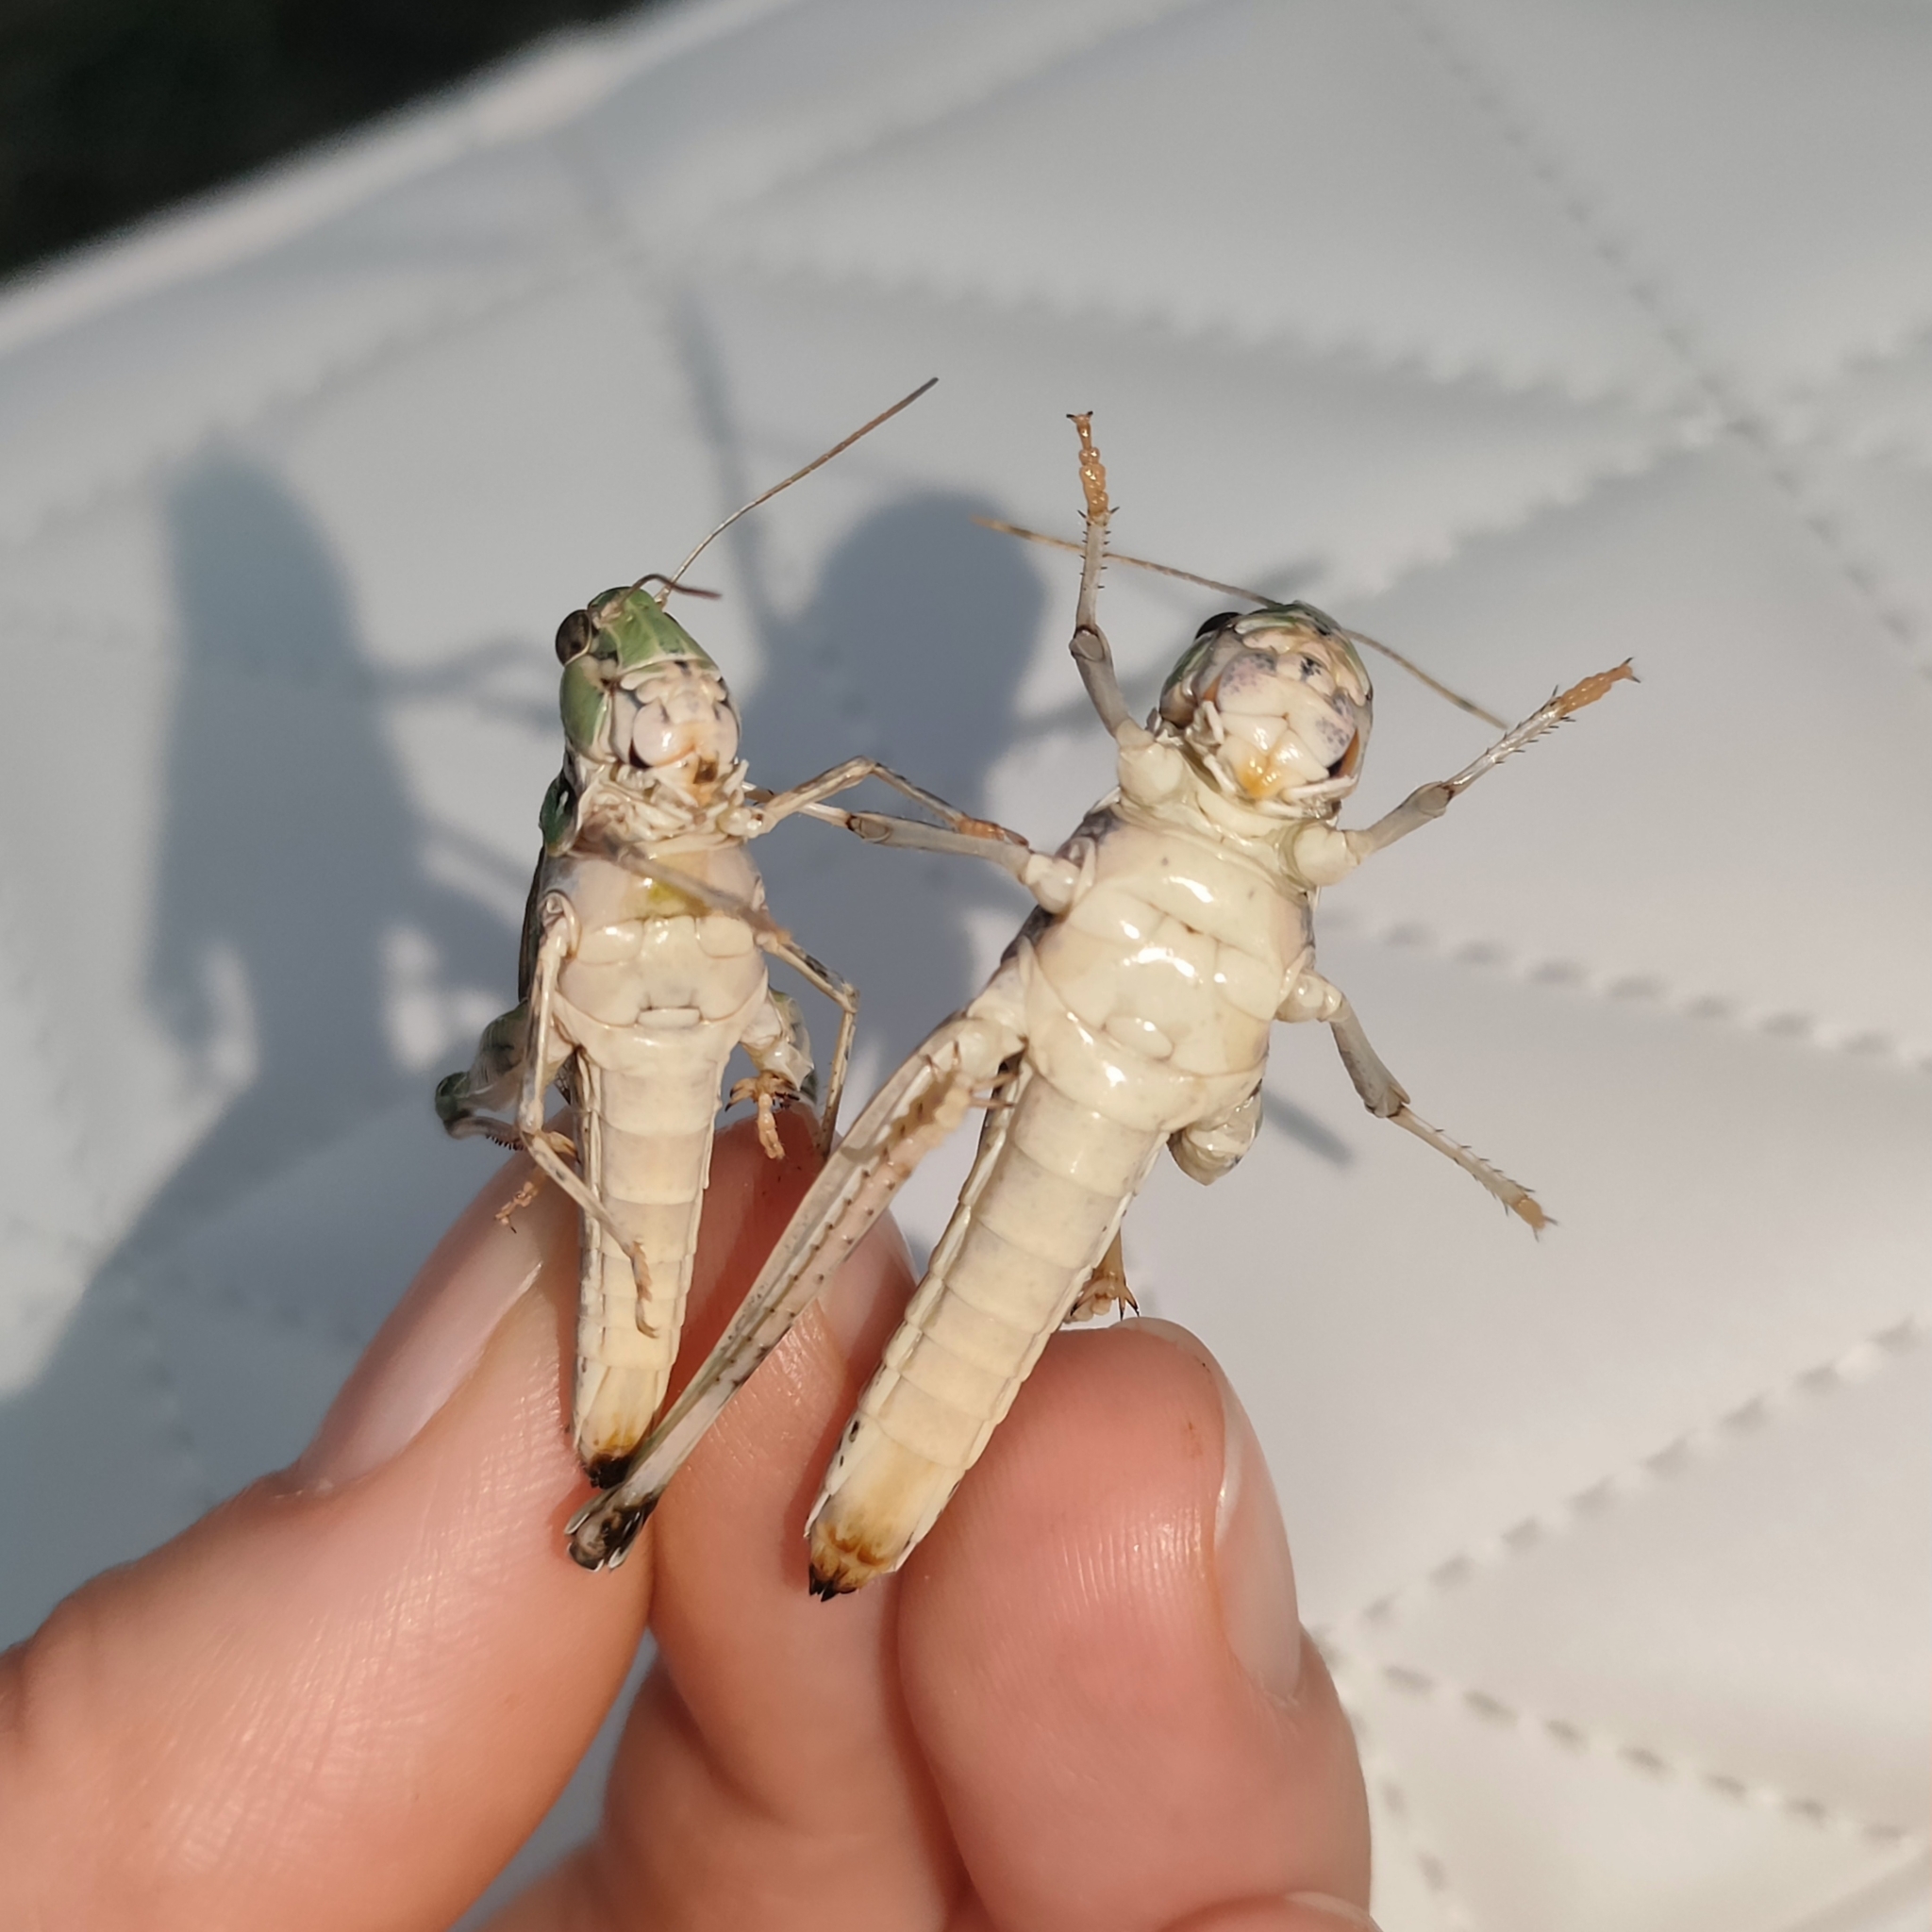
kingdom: Animalia
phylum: Arthropoda
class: Insecta
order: Orthoptera
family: Acrididae
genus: Oedaleus
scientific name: Oedaleus decorus
